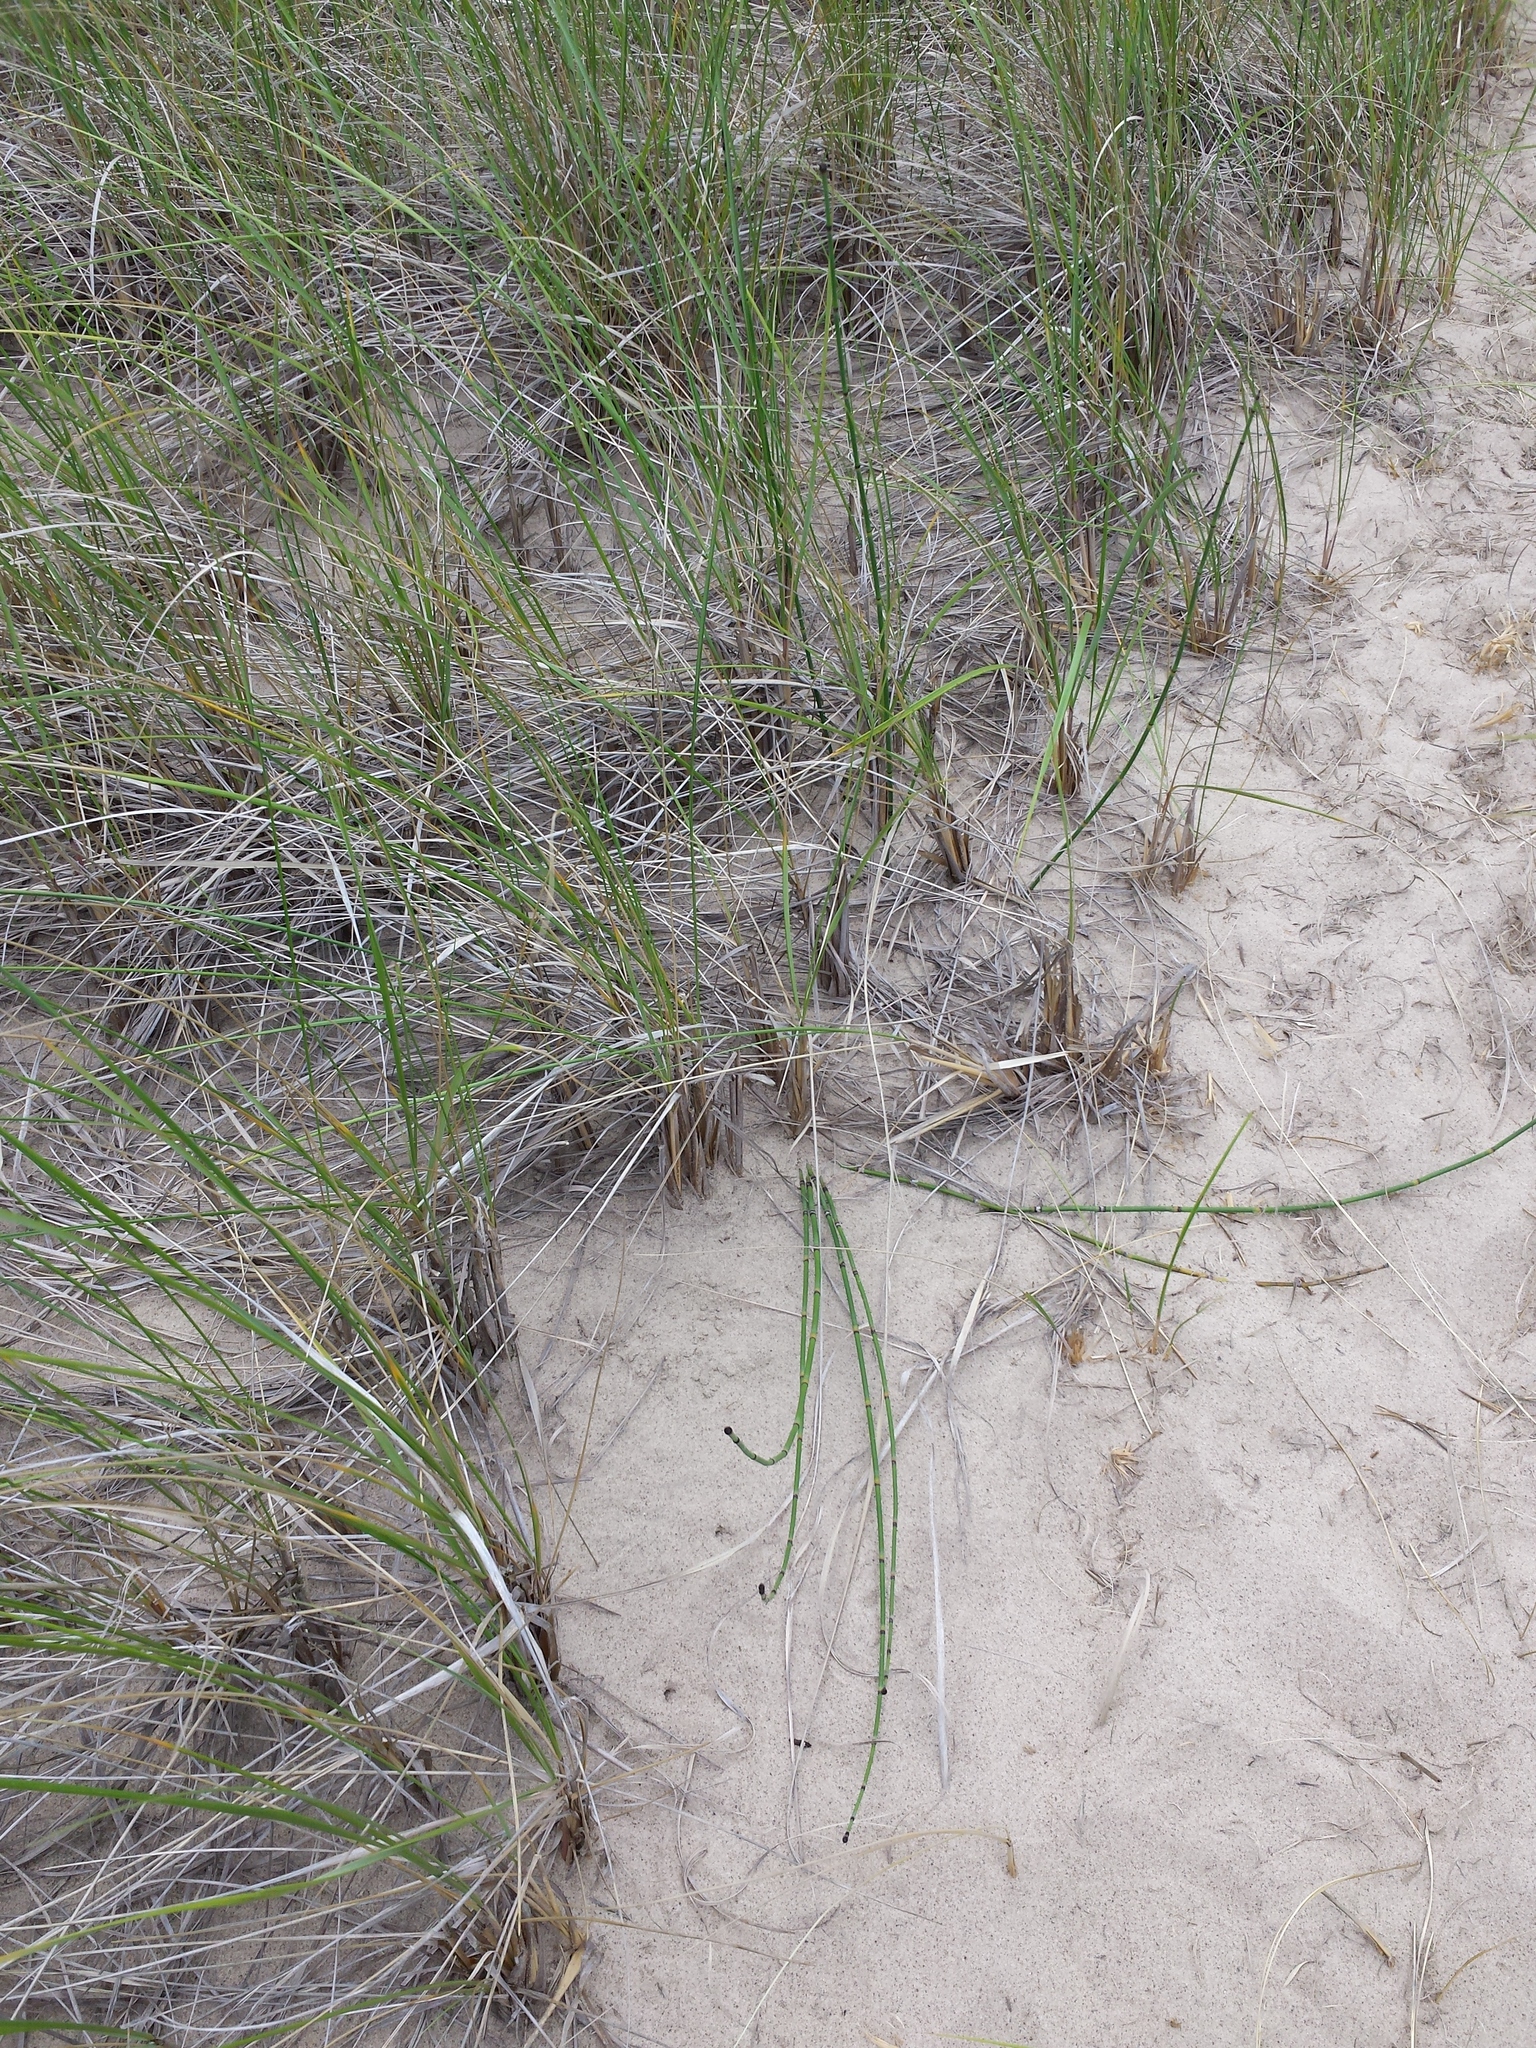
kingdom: Plantae
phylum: Tracheophyta
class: Polypodiopsida
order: Equisetales
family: Equisetaceae
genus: Equisetum
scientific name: Equisetum hyemale
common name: Rough horsetail
